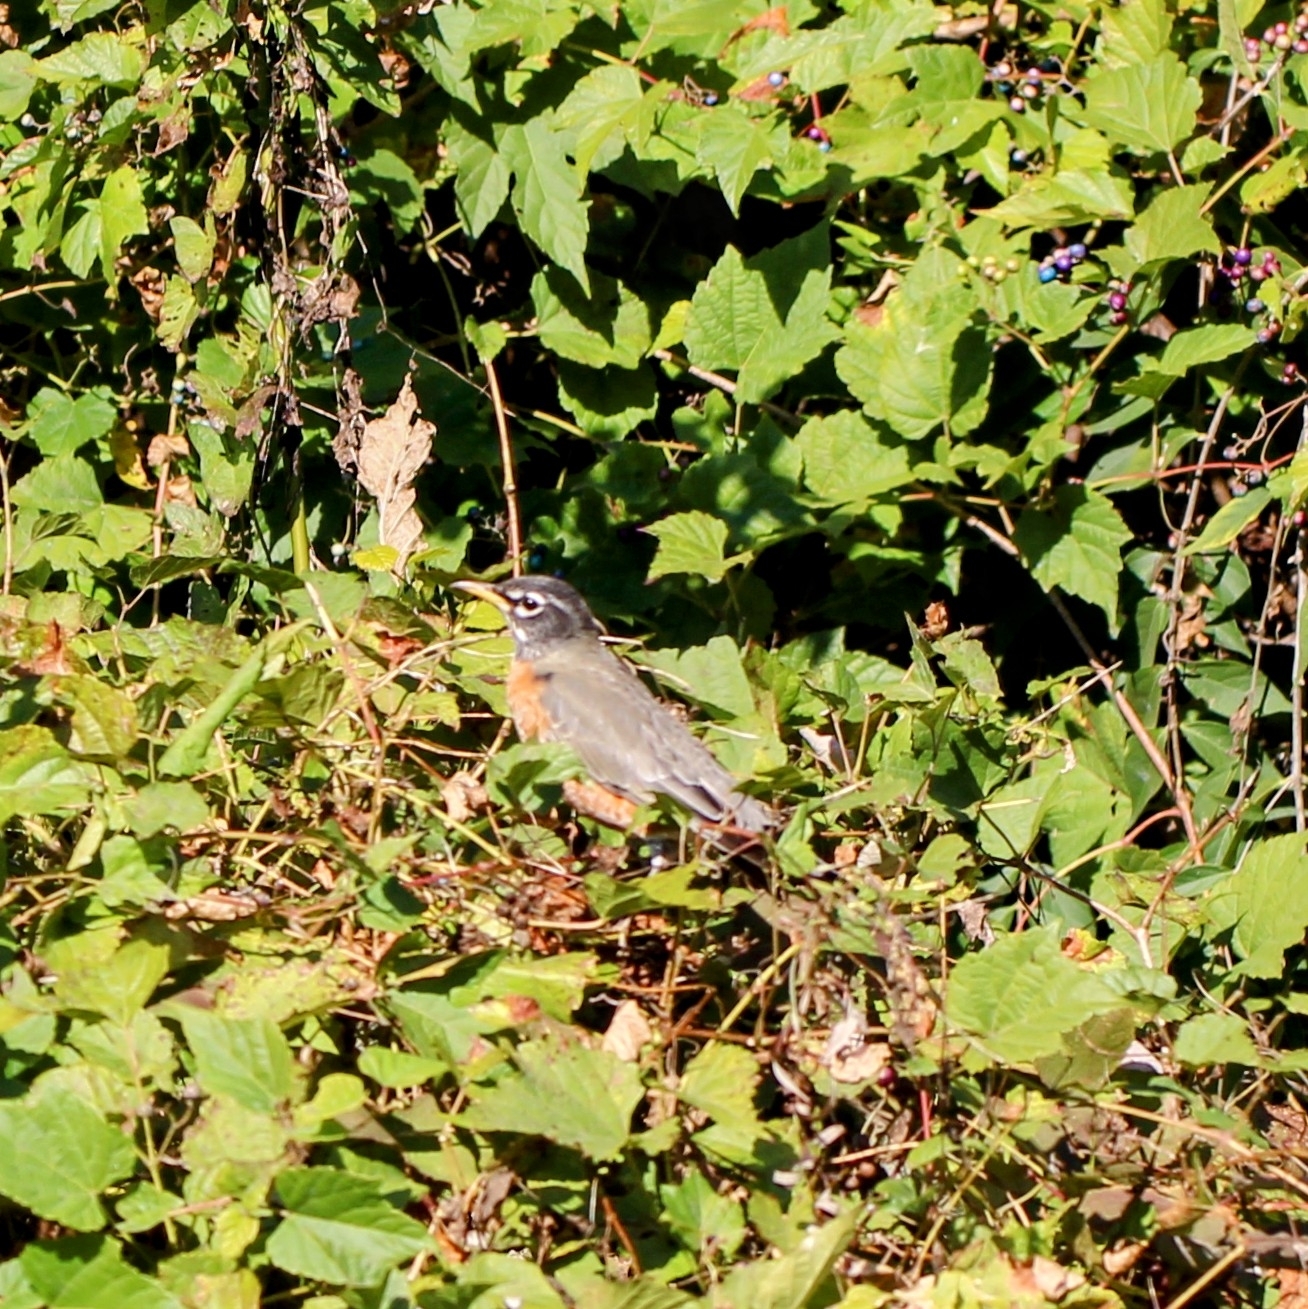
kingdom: Animalia
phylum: Chordata
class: Aves
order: Passeriformes
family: Turdidae
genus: Turdus
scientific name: Turdus migratorius
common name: American robin
